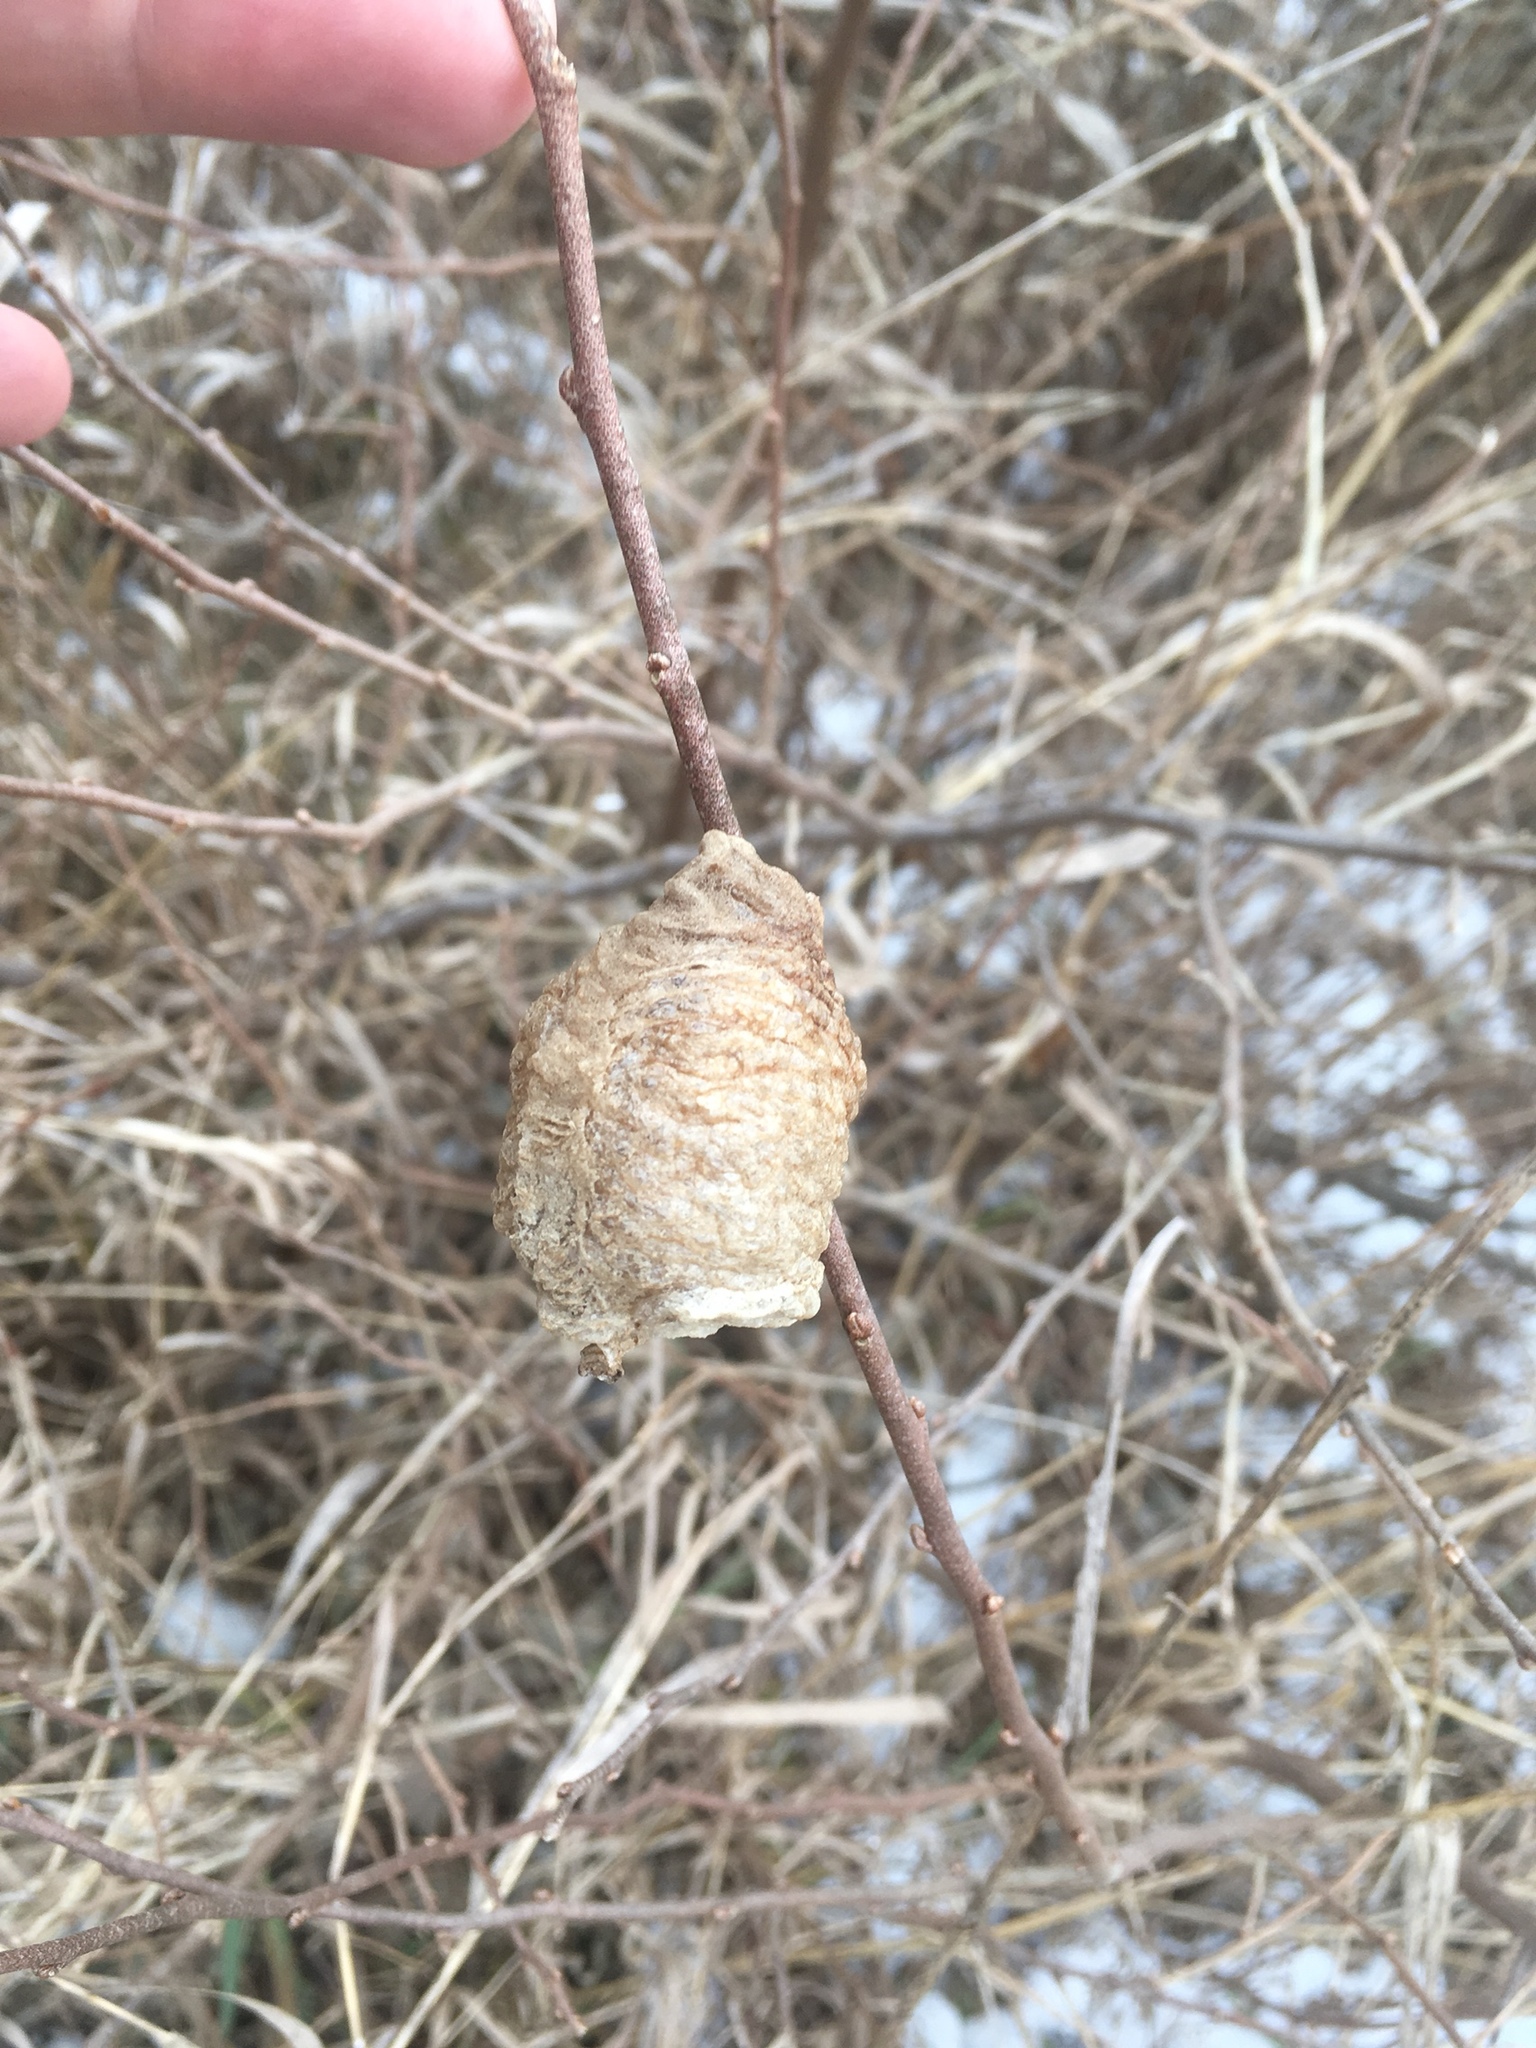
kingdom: Animalia
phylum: Arthropoda
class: Insecta
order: Mantodea
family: Mantidae
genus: Tenodera
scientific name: Tenodera sinensis
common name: Chinese mantis
